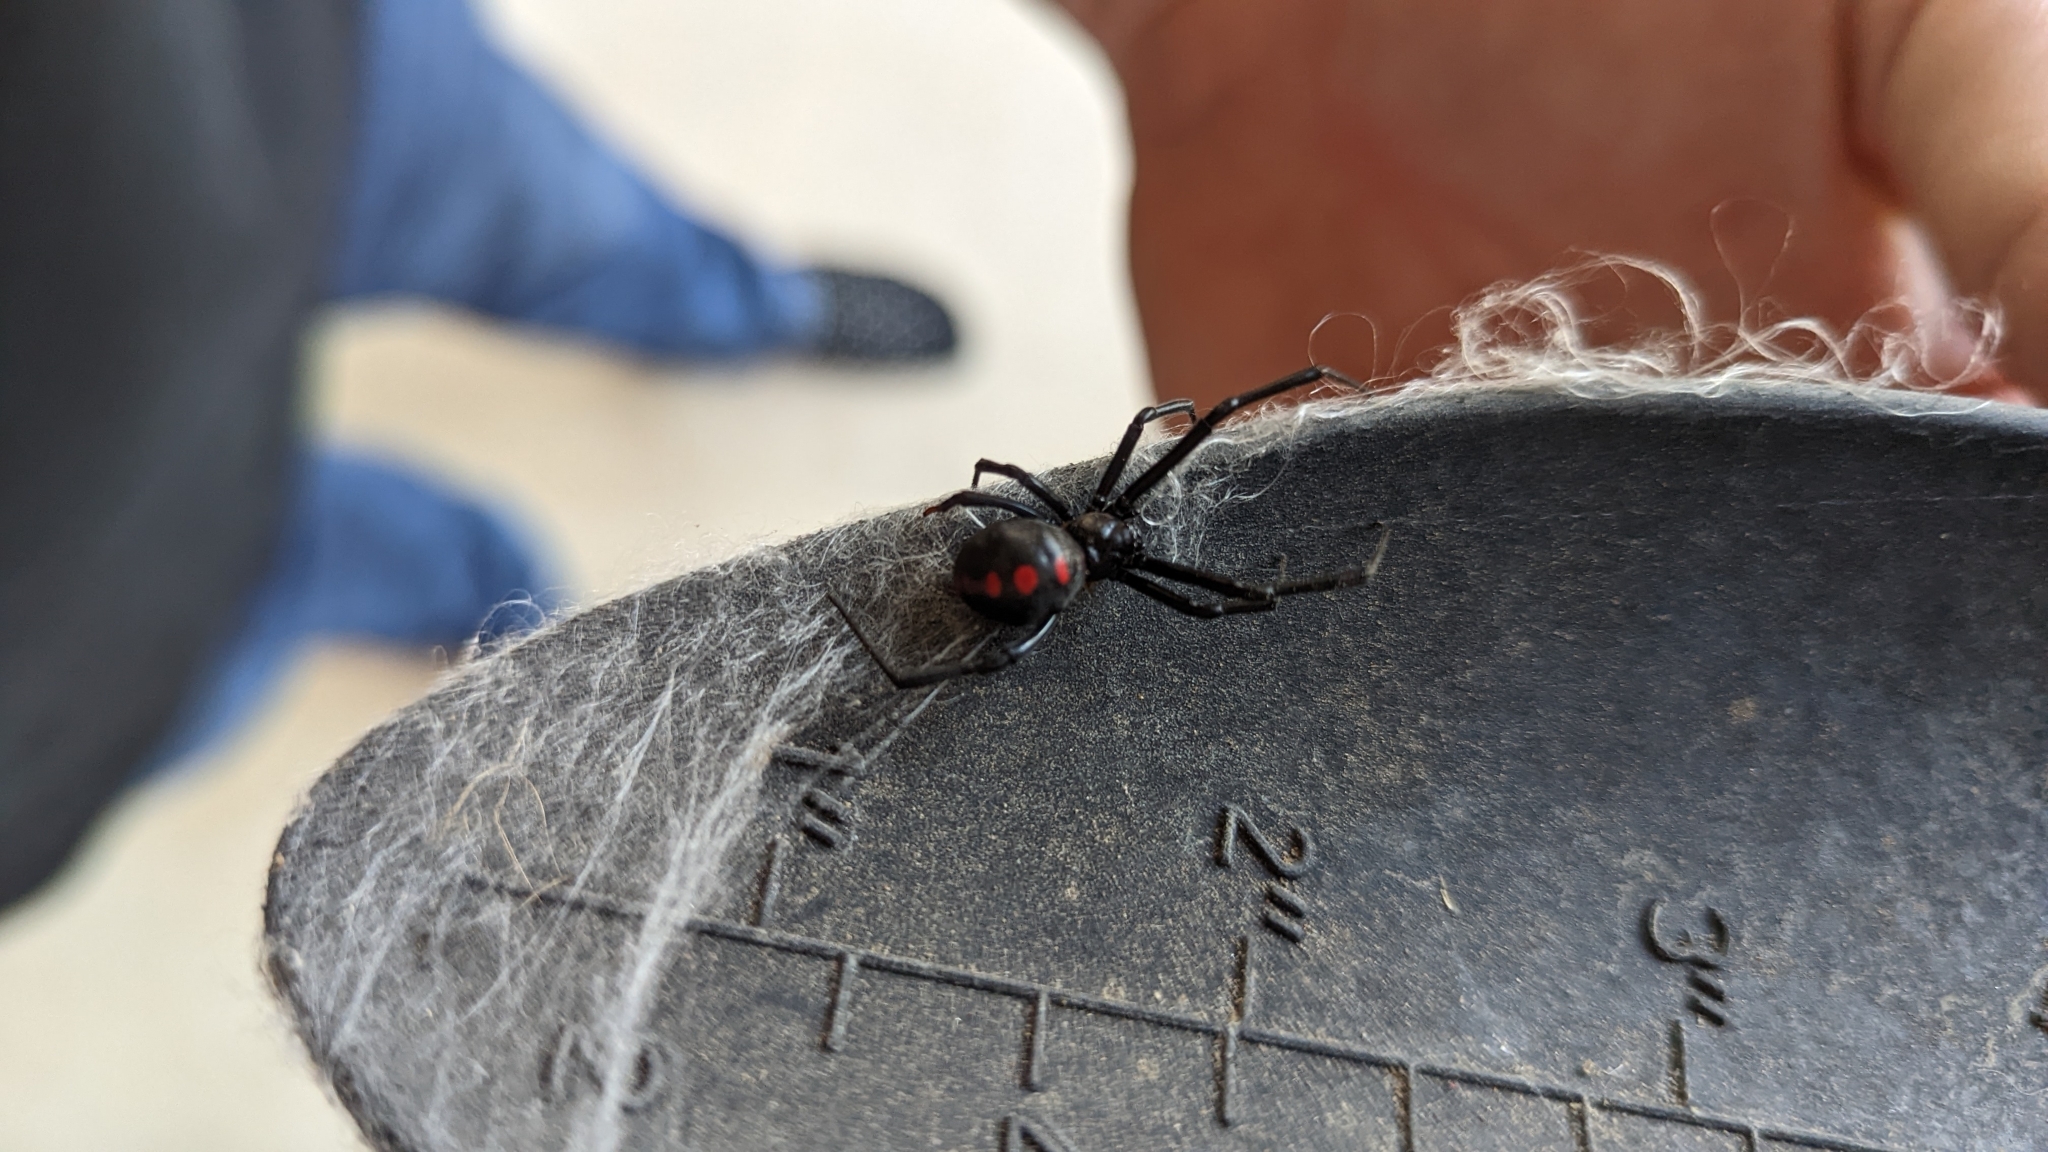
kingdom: Animalia
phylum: Arthropoda
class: Arachnida
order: Araneae
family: Theridiidae
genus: Latrodectus
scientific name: Latrodectus variolus
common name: Northern black widow
